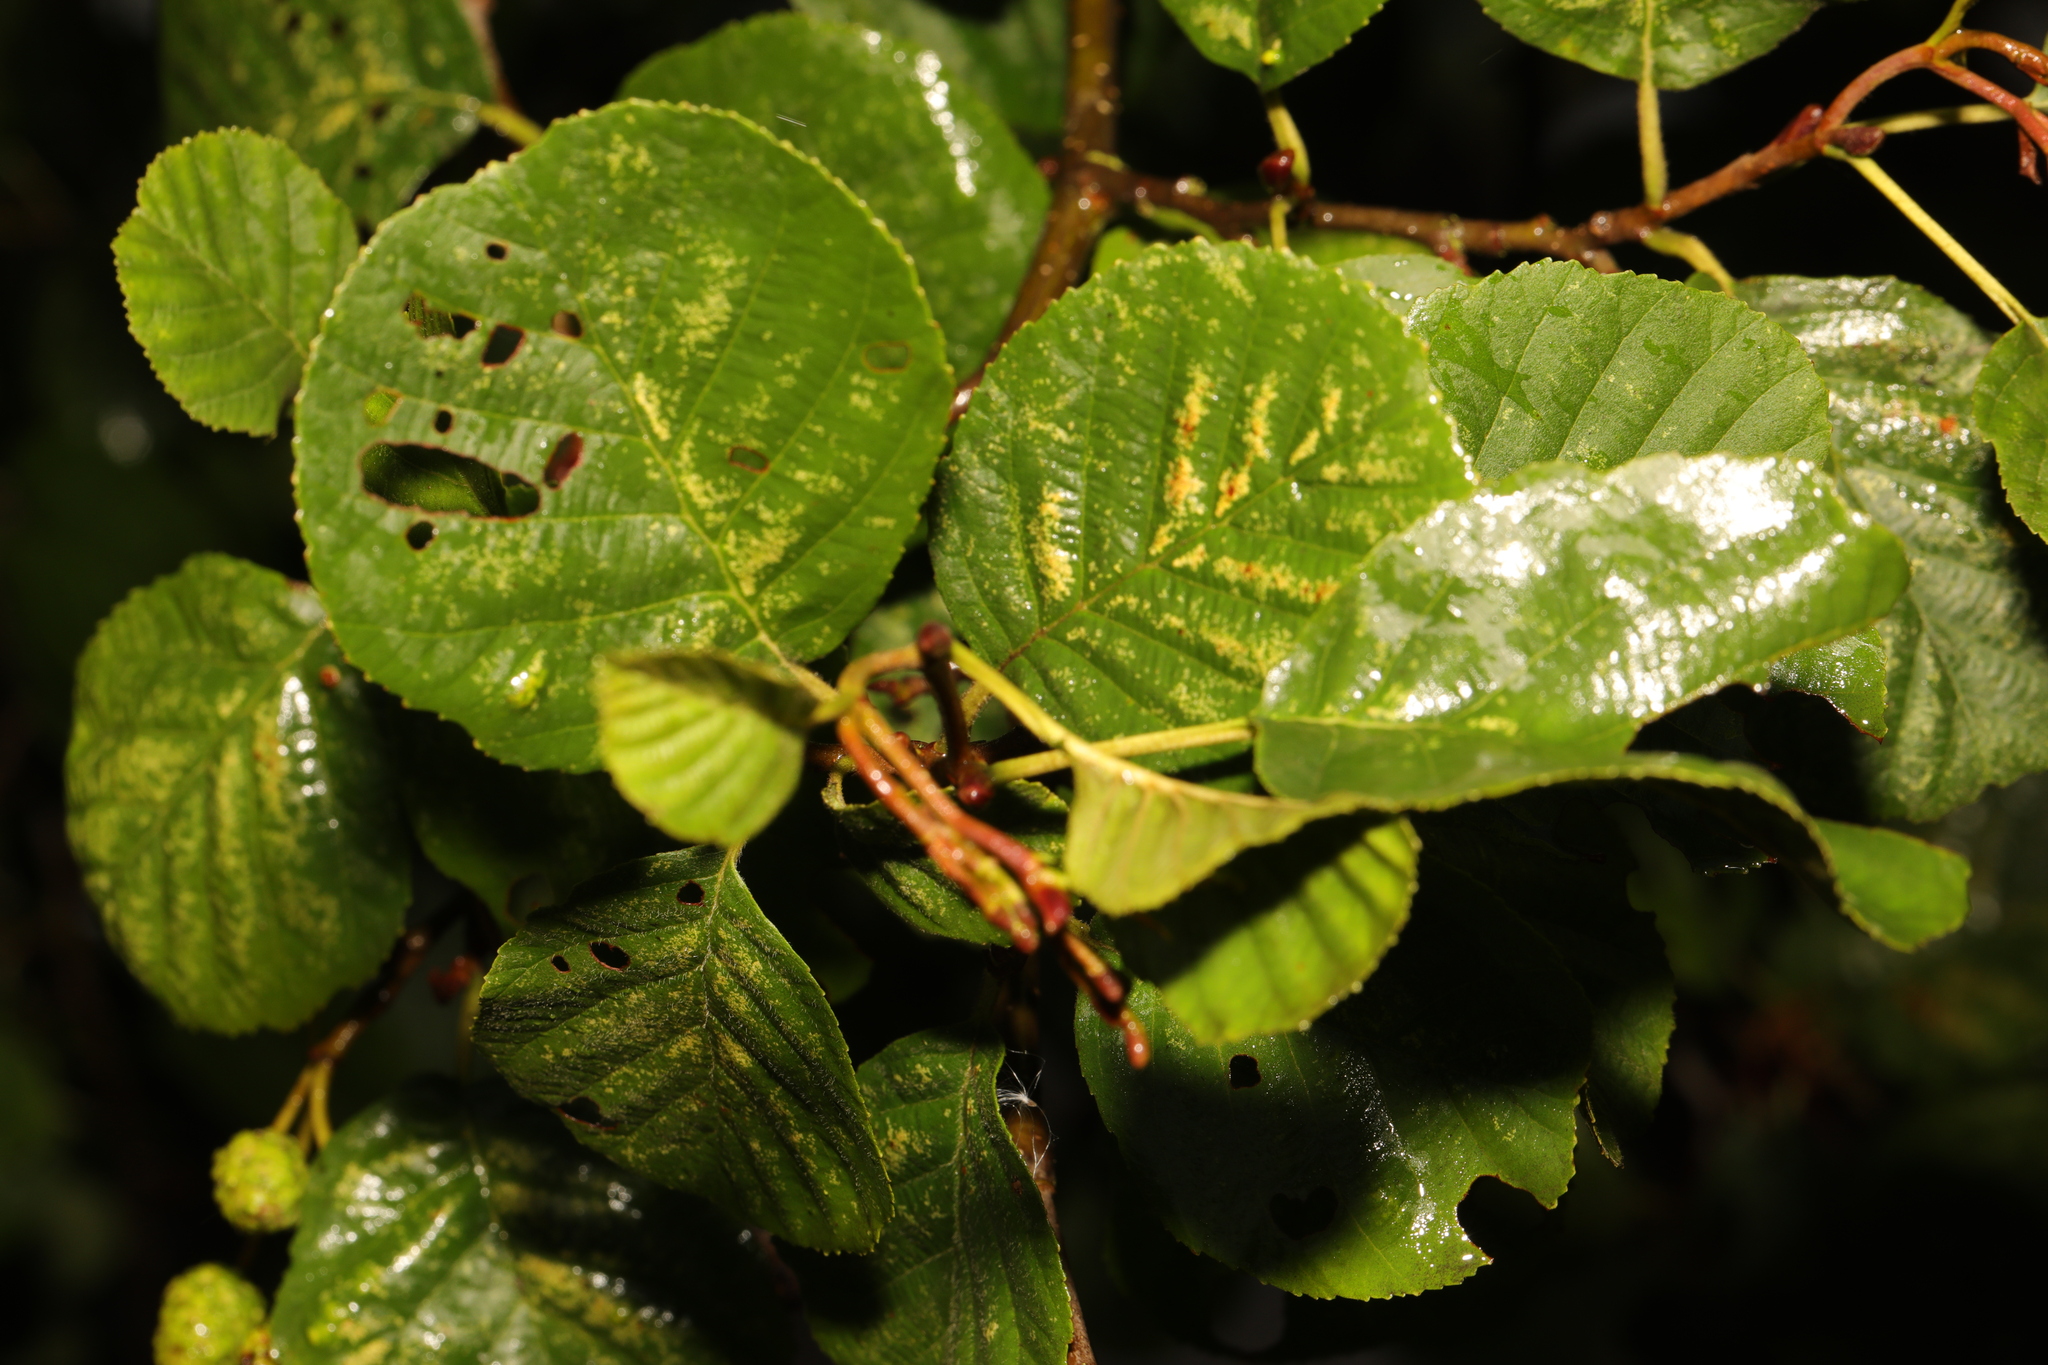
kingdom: Plantae
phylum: Tracheophyta
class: Magnoliopsida
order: Fagales
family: Betulaceae
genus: Alnus
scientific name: Alnus glutinosa
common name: Black alder
